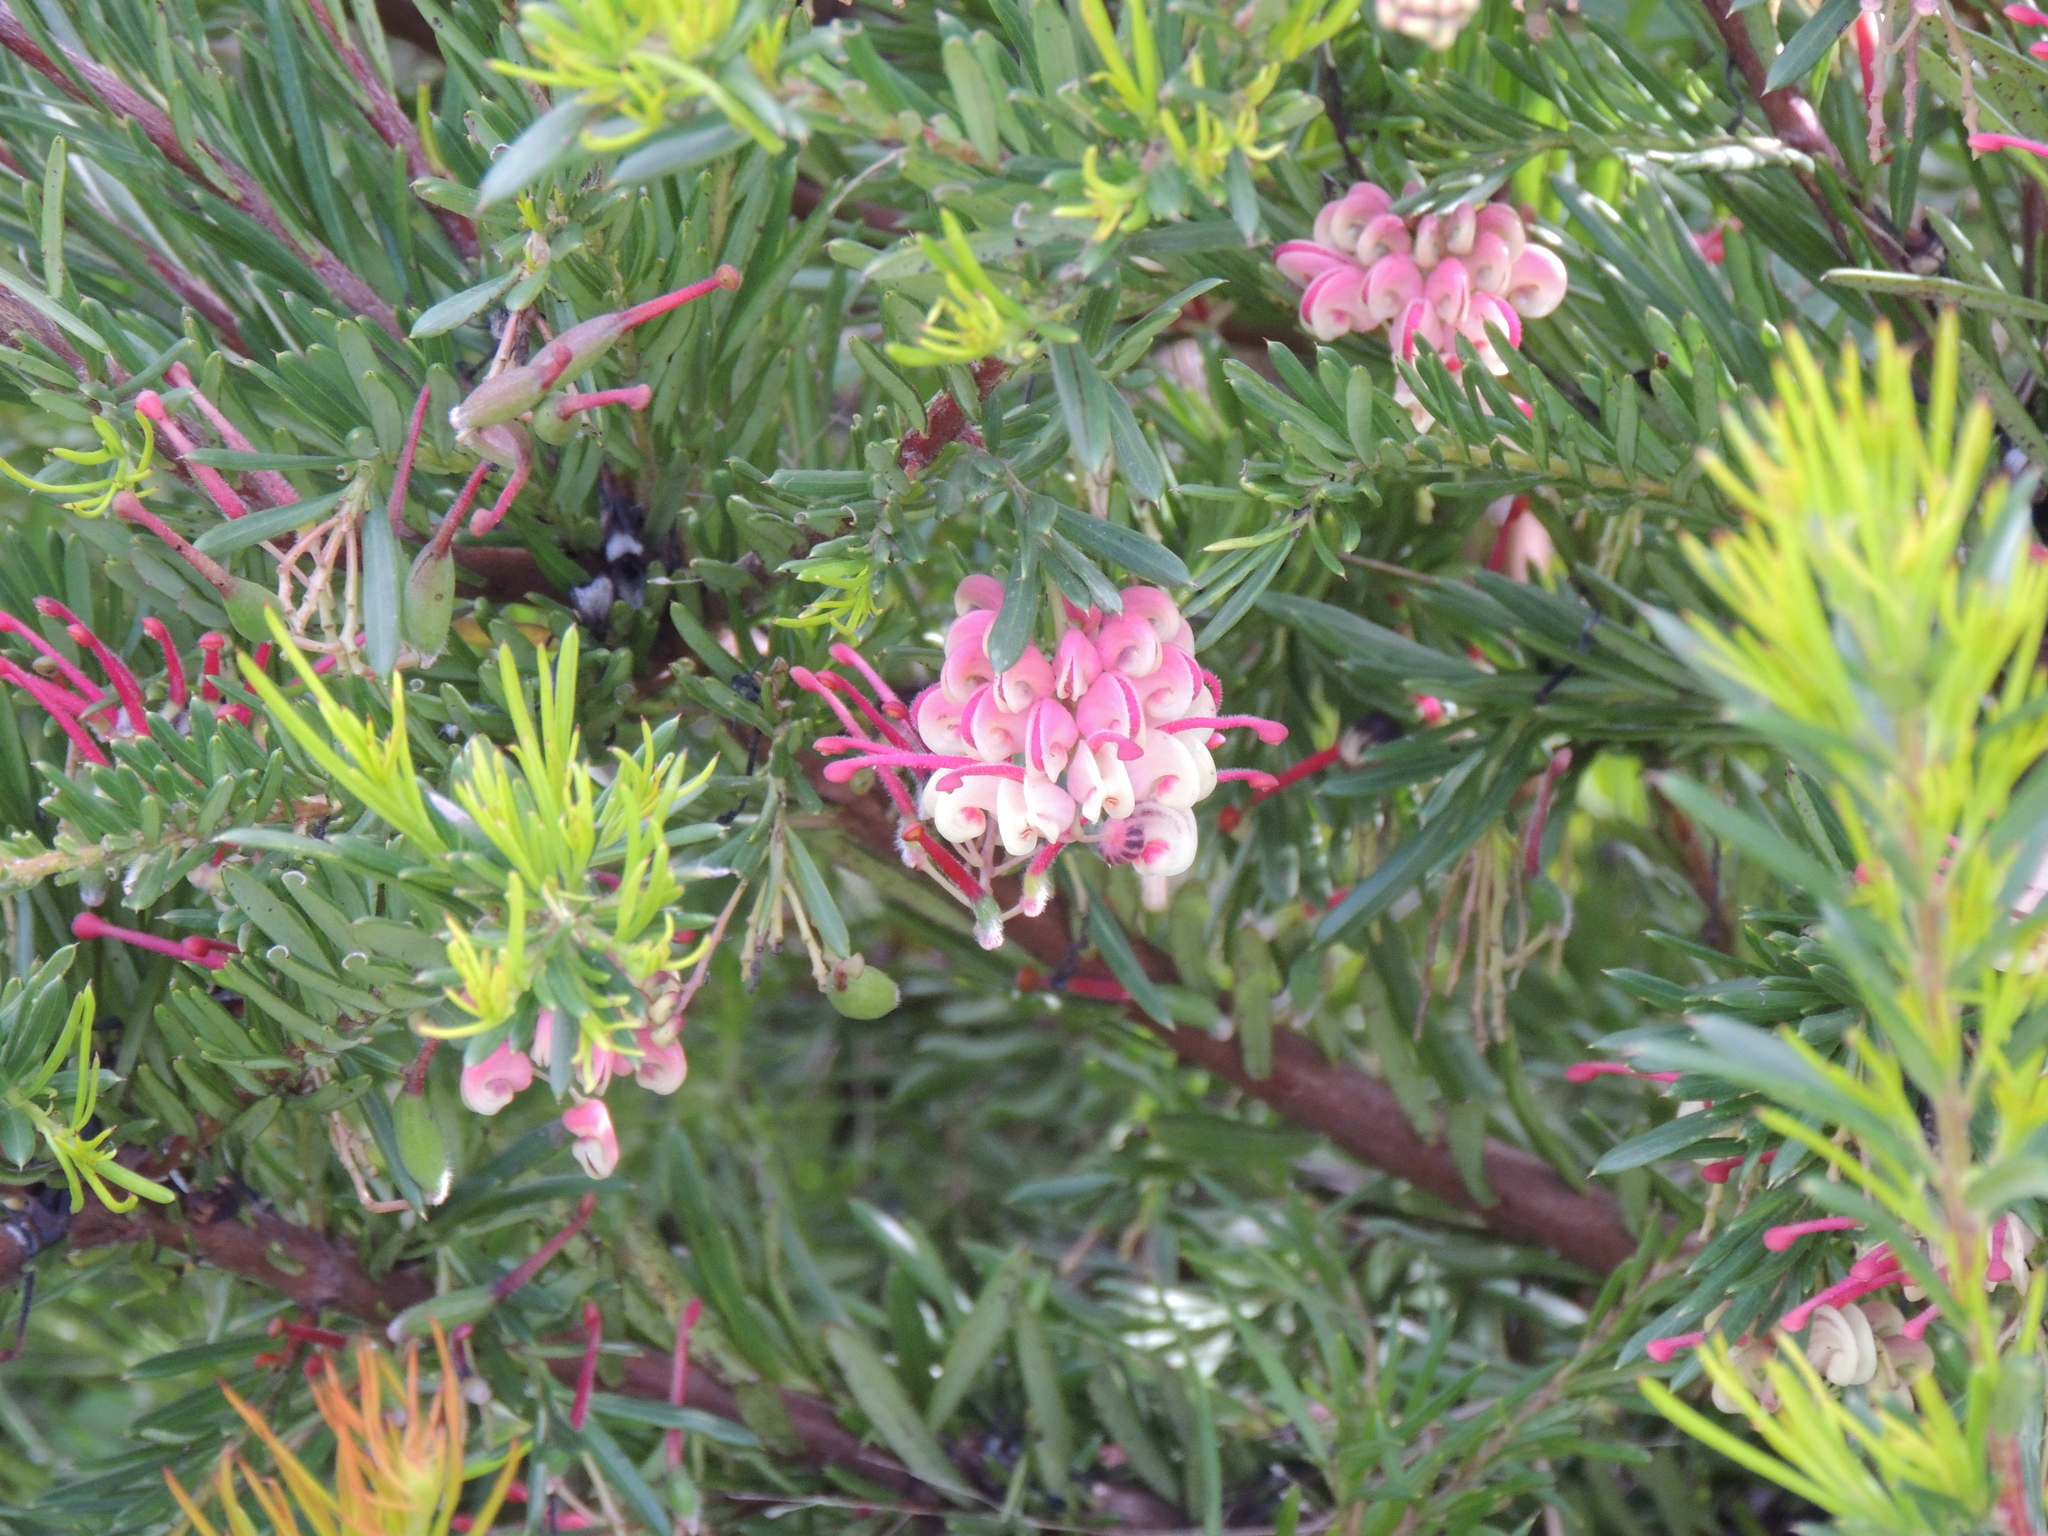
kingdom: Plantae
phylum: Tracheophyta
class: Magnoliopsida
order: Proteales
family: Proteaceae
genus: Grevillea
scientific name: Grevillea
